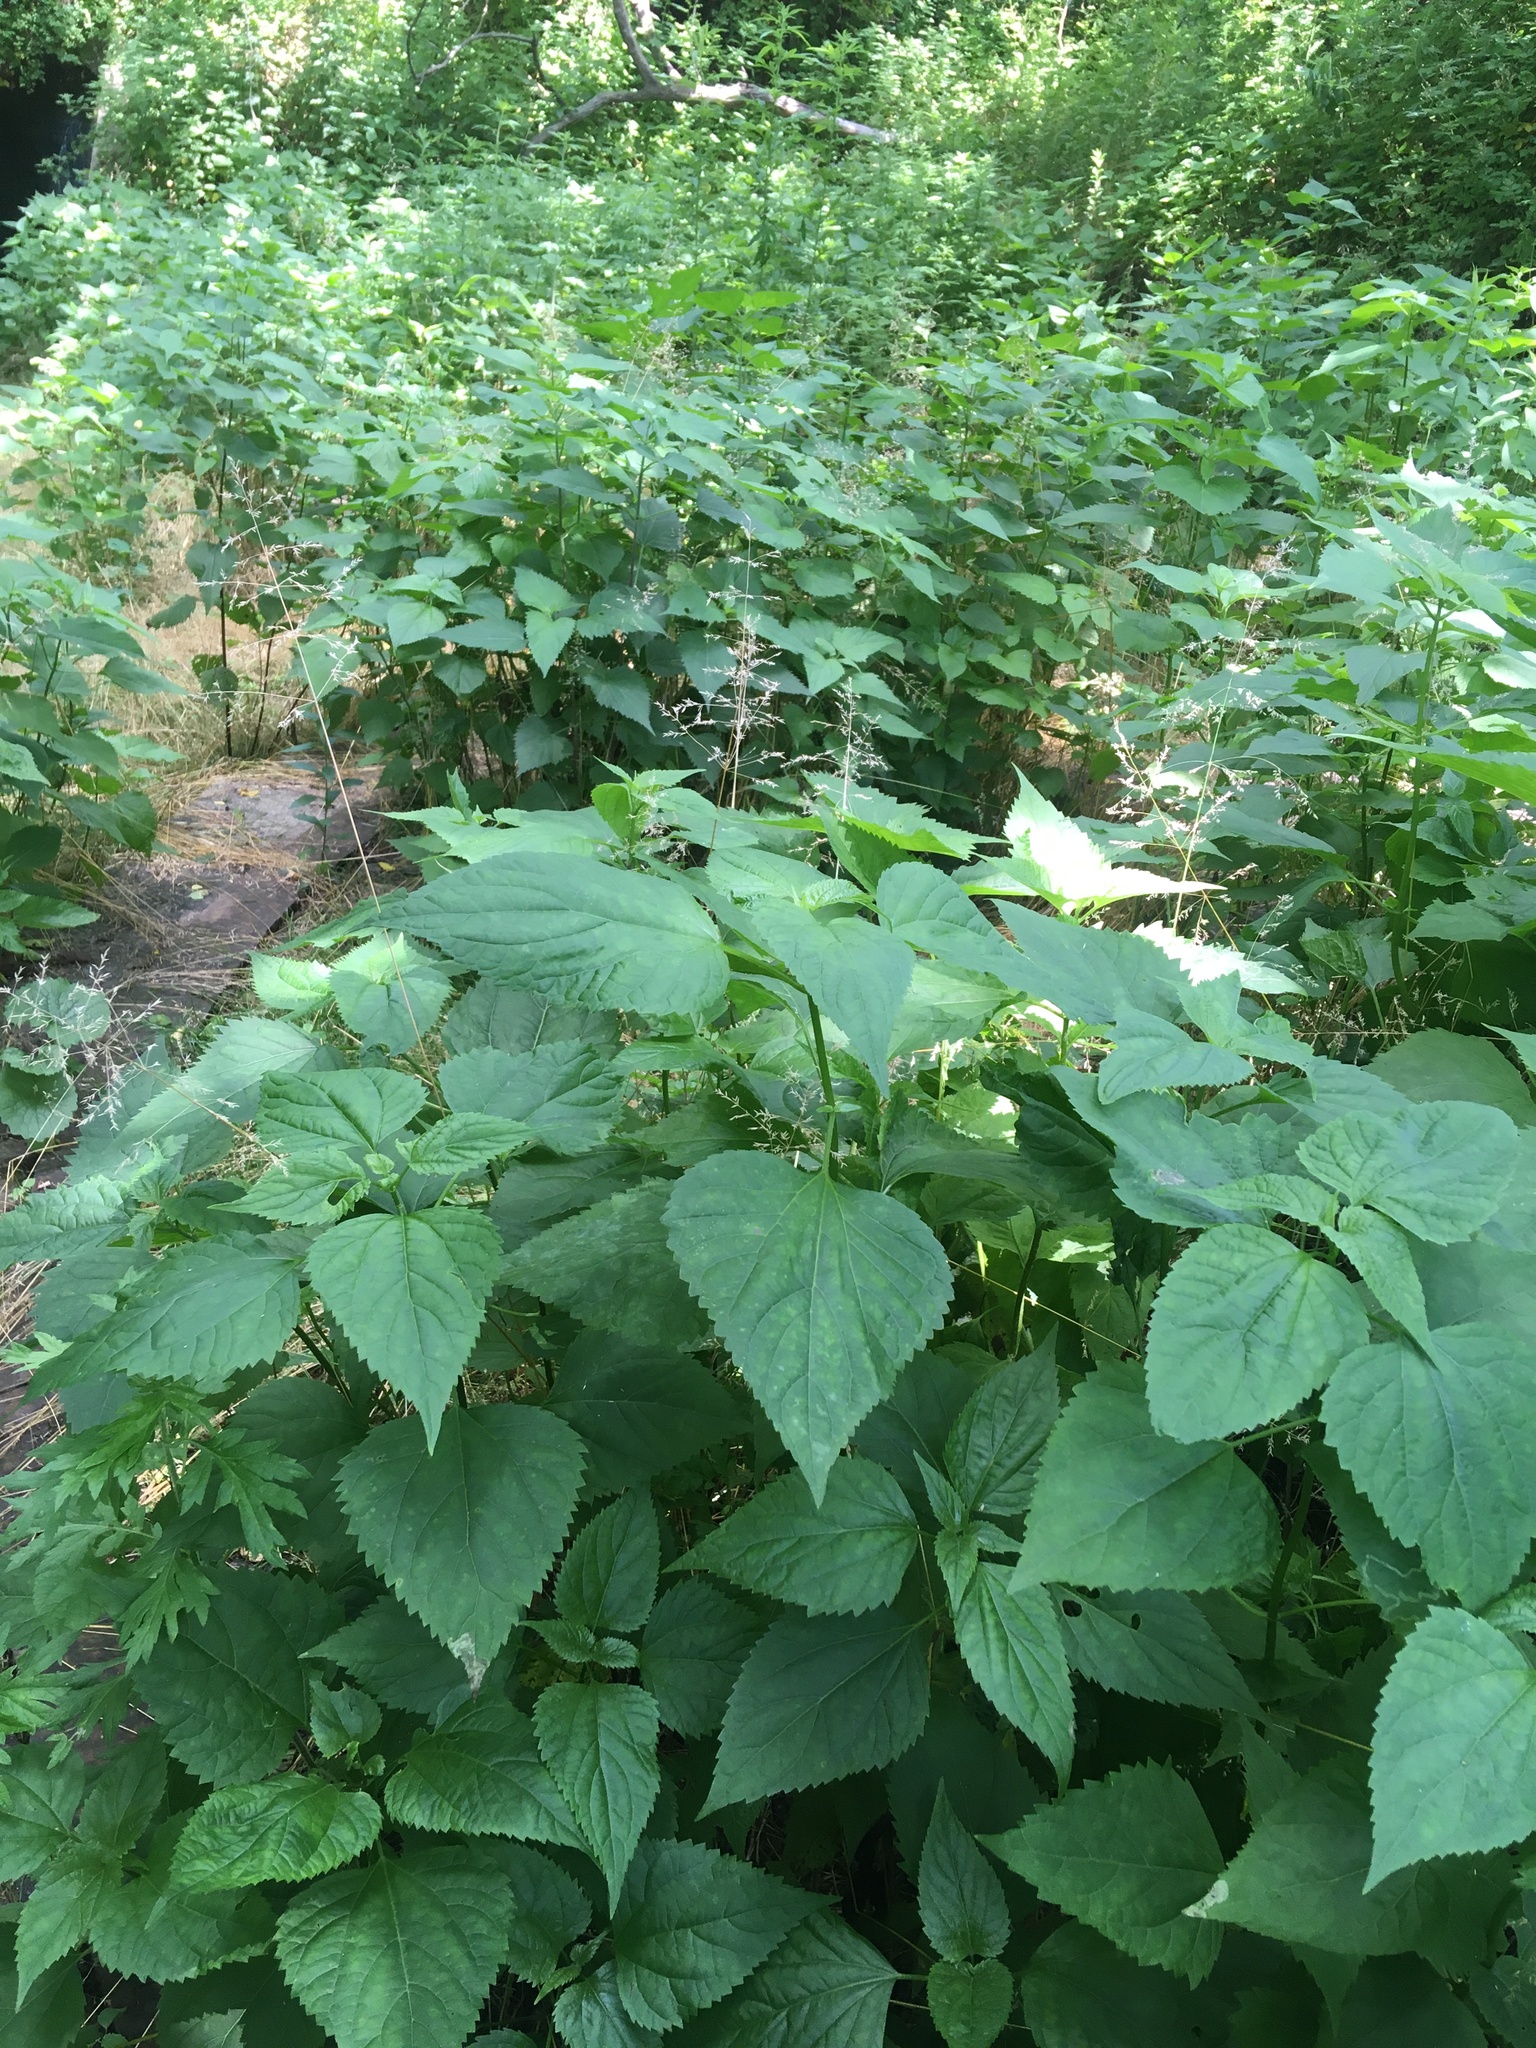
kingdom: Plantae
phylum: Tracheophyta
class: Magnoliopsida
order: Asterales
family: Asteraceae
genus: Ageratina
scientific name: Ageratina altissima
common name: White snakeroot
